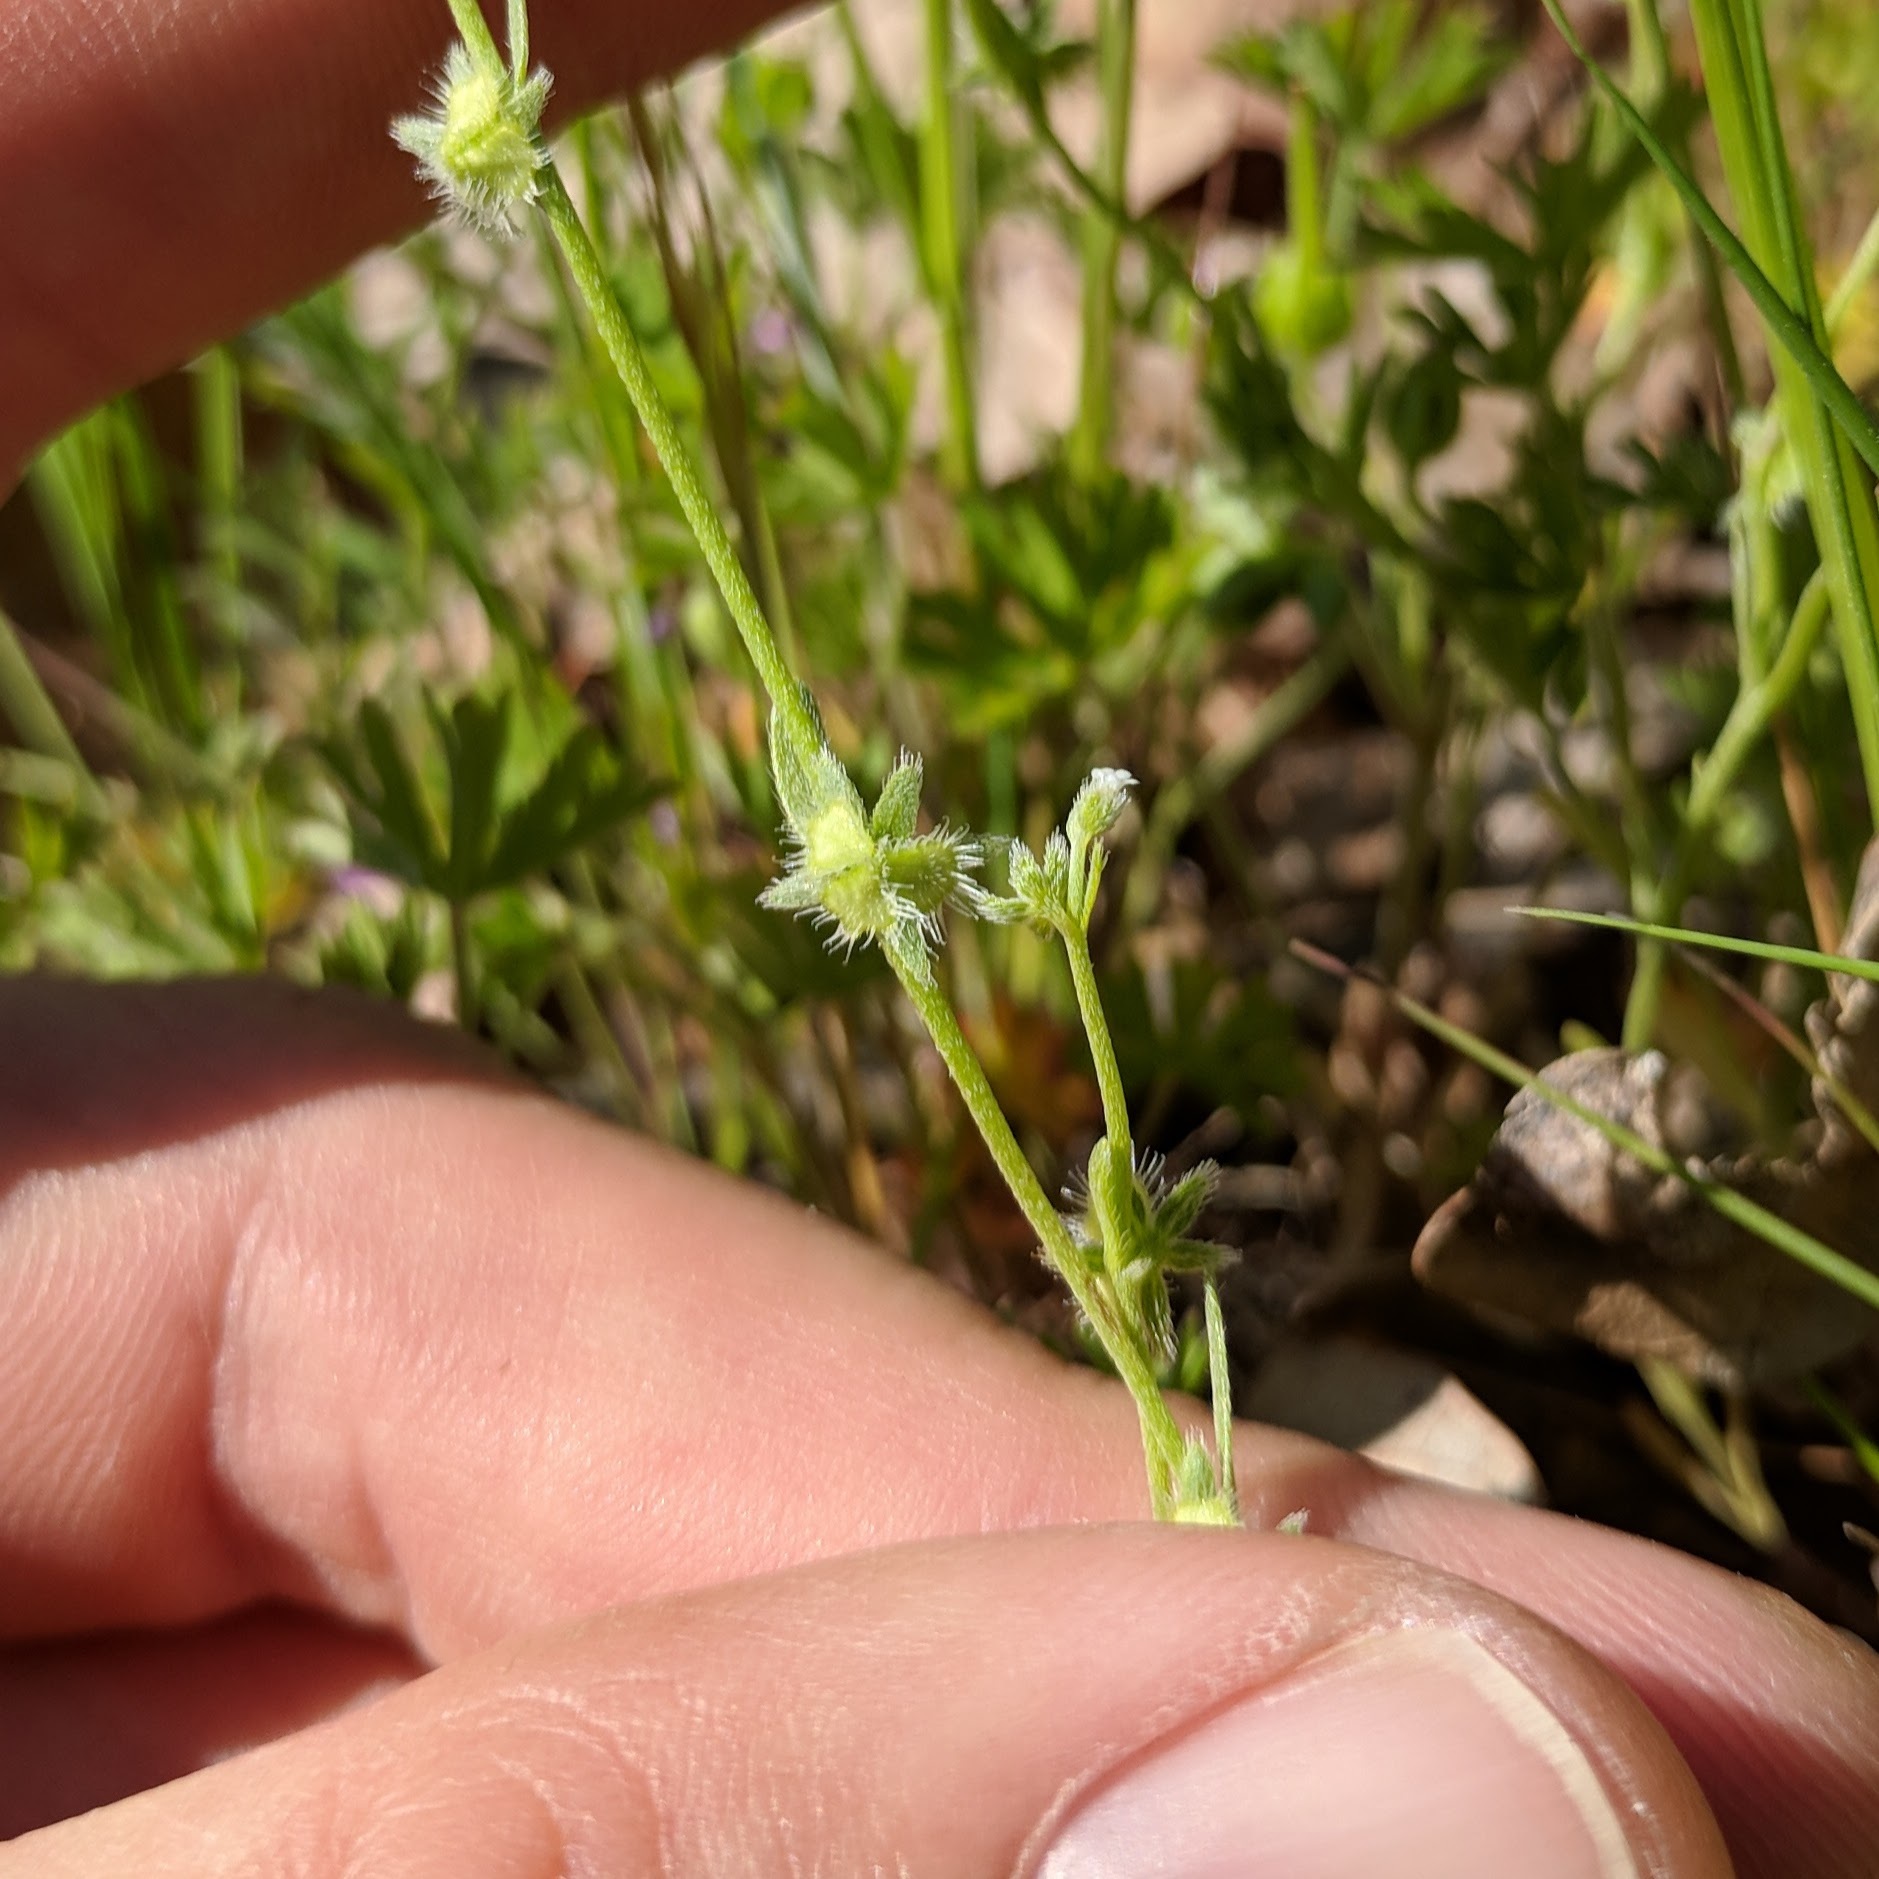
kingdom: Plantae
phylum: Tracheophyta
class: Magnoliopsida
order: Boraginales
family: Boraginaceae
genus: Pectocarya
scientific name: Pectocarya pusilla
